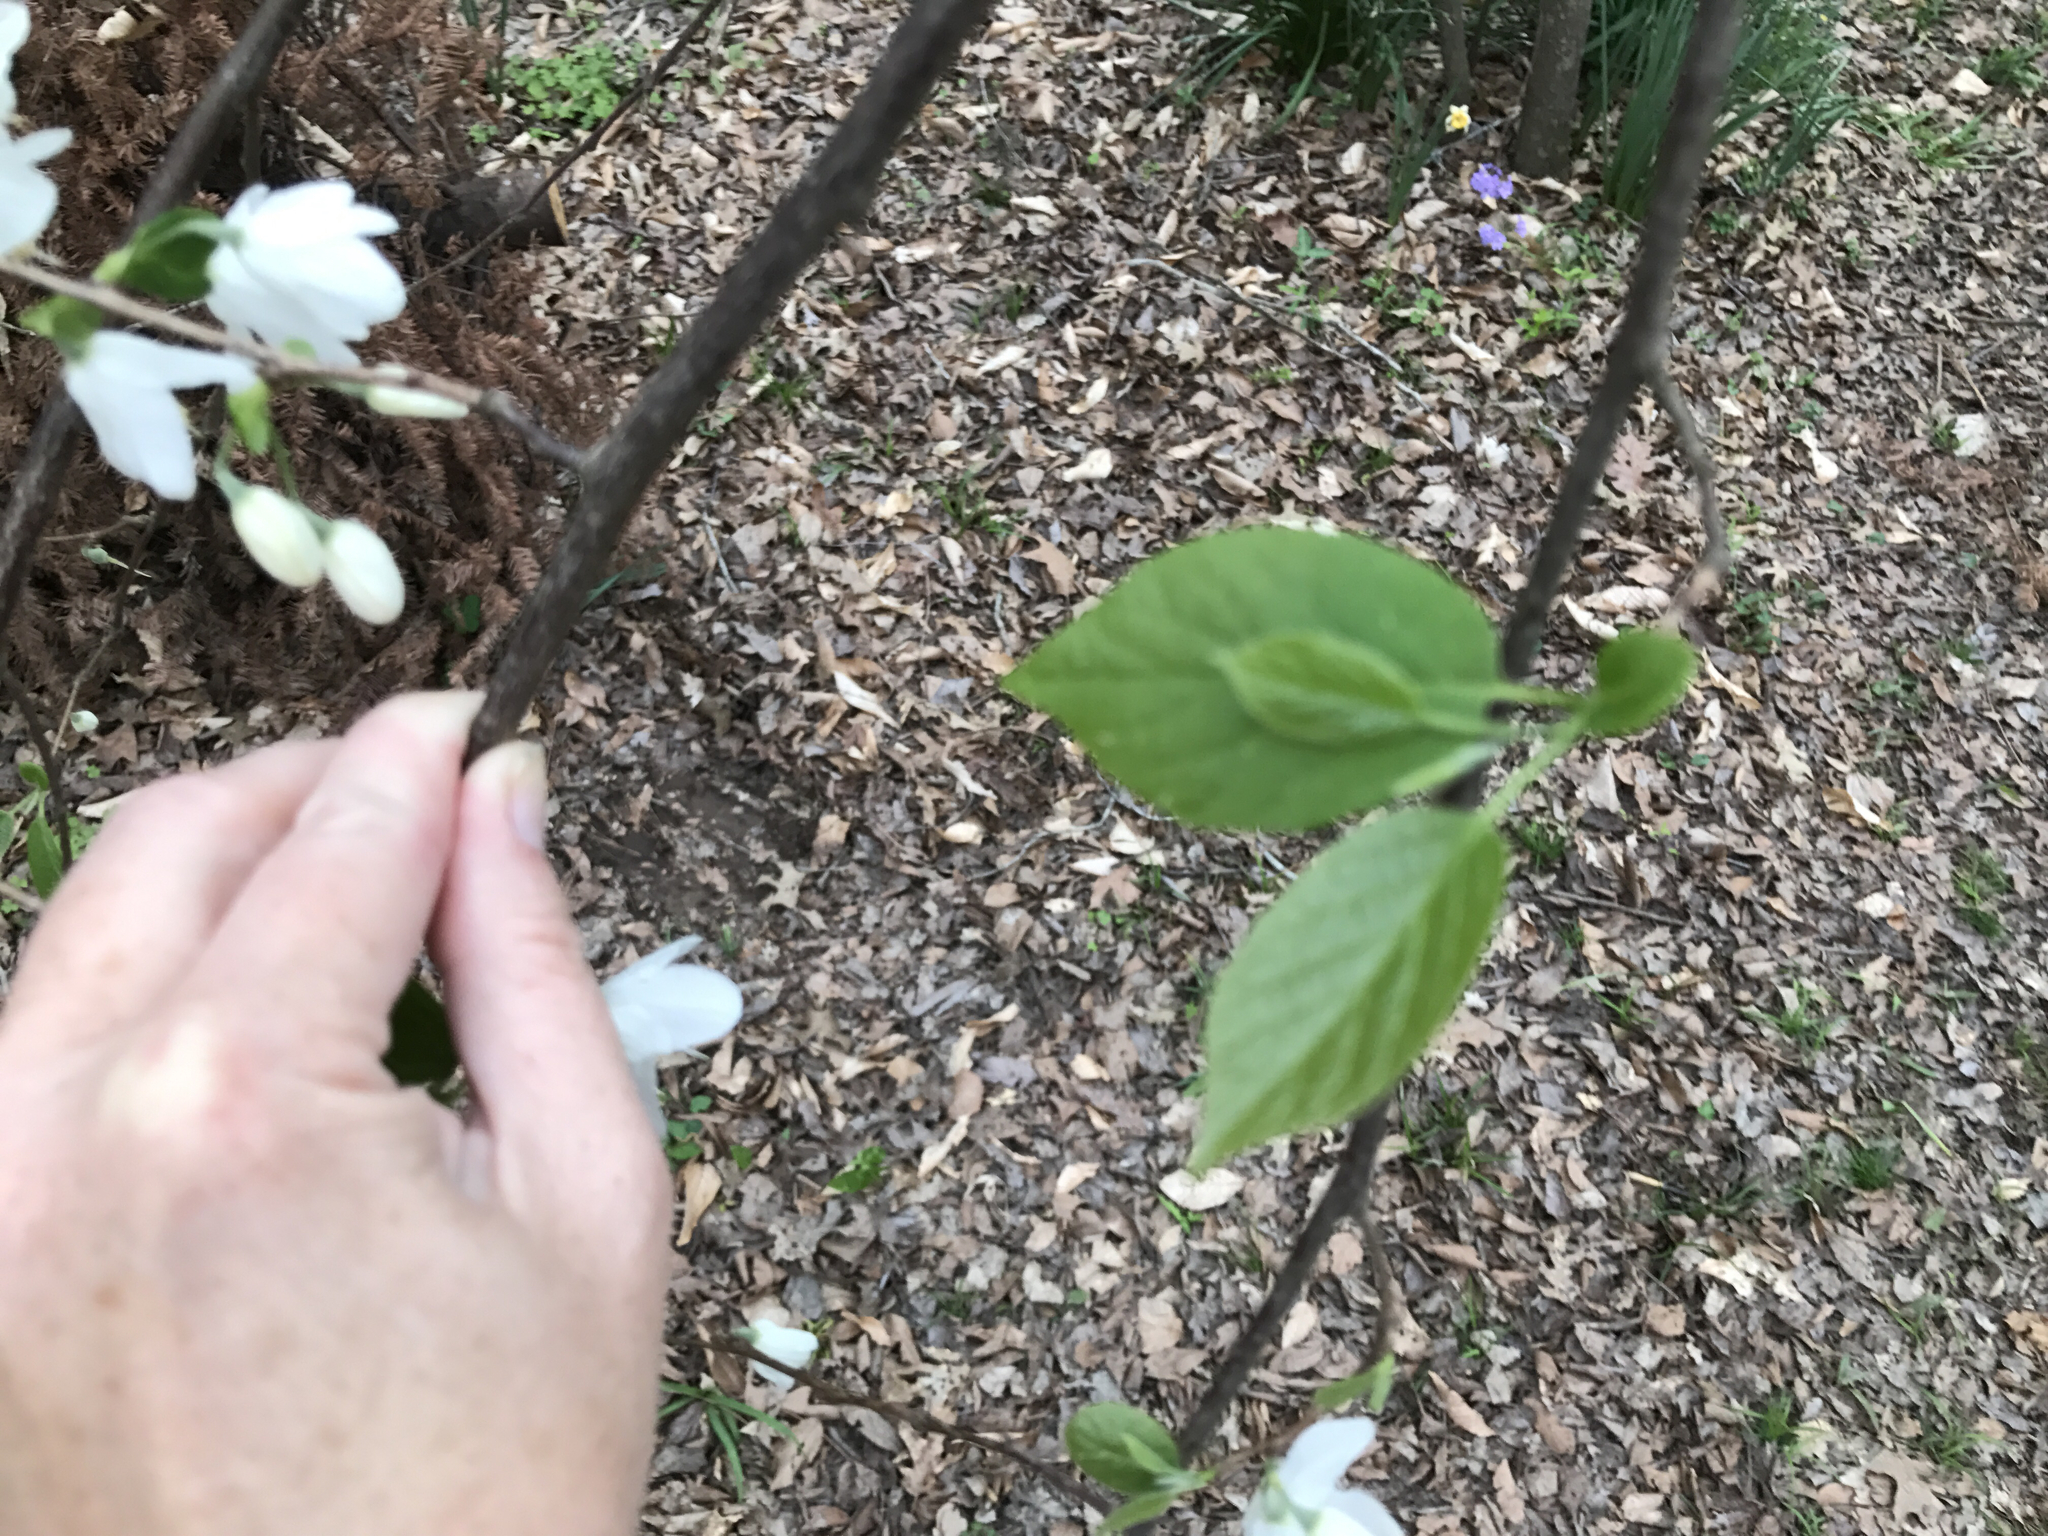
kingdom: Plantae
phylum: Tracheophyta
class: Magnoliopsida
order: Ericales
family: Styracaceae
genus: Halesia
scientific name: Halesia diptera
